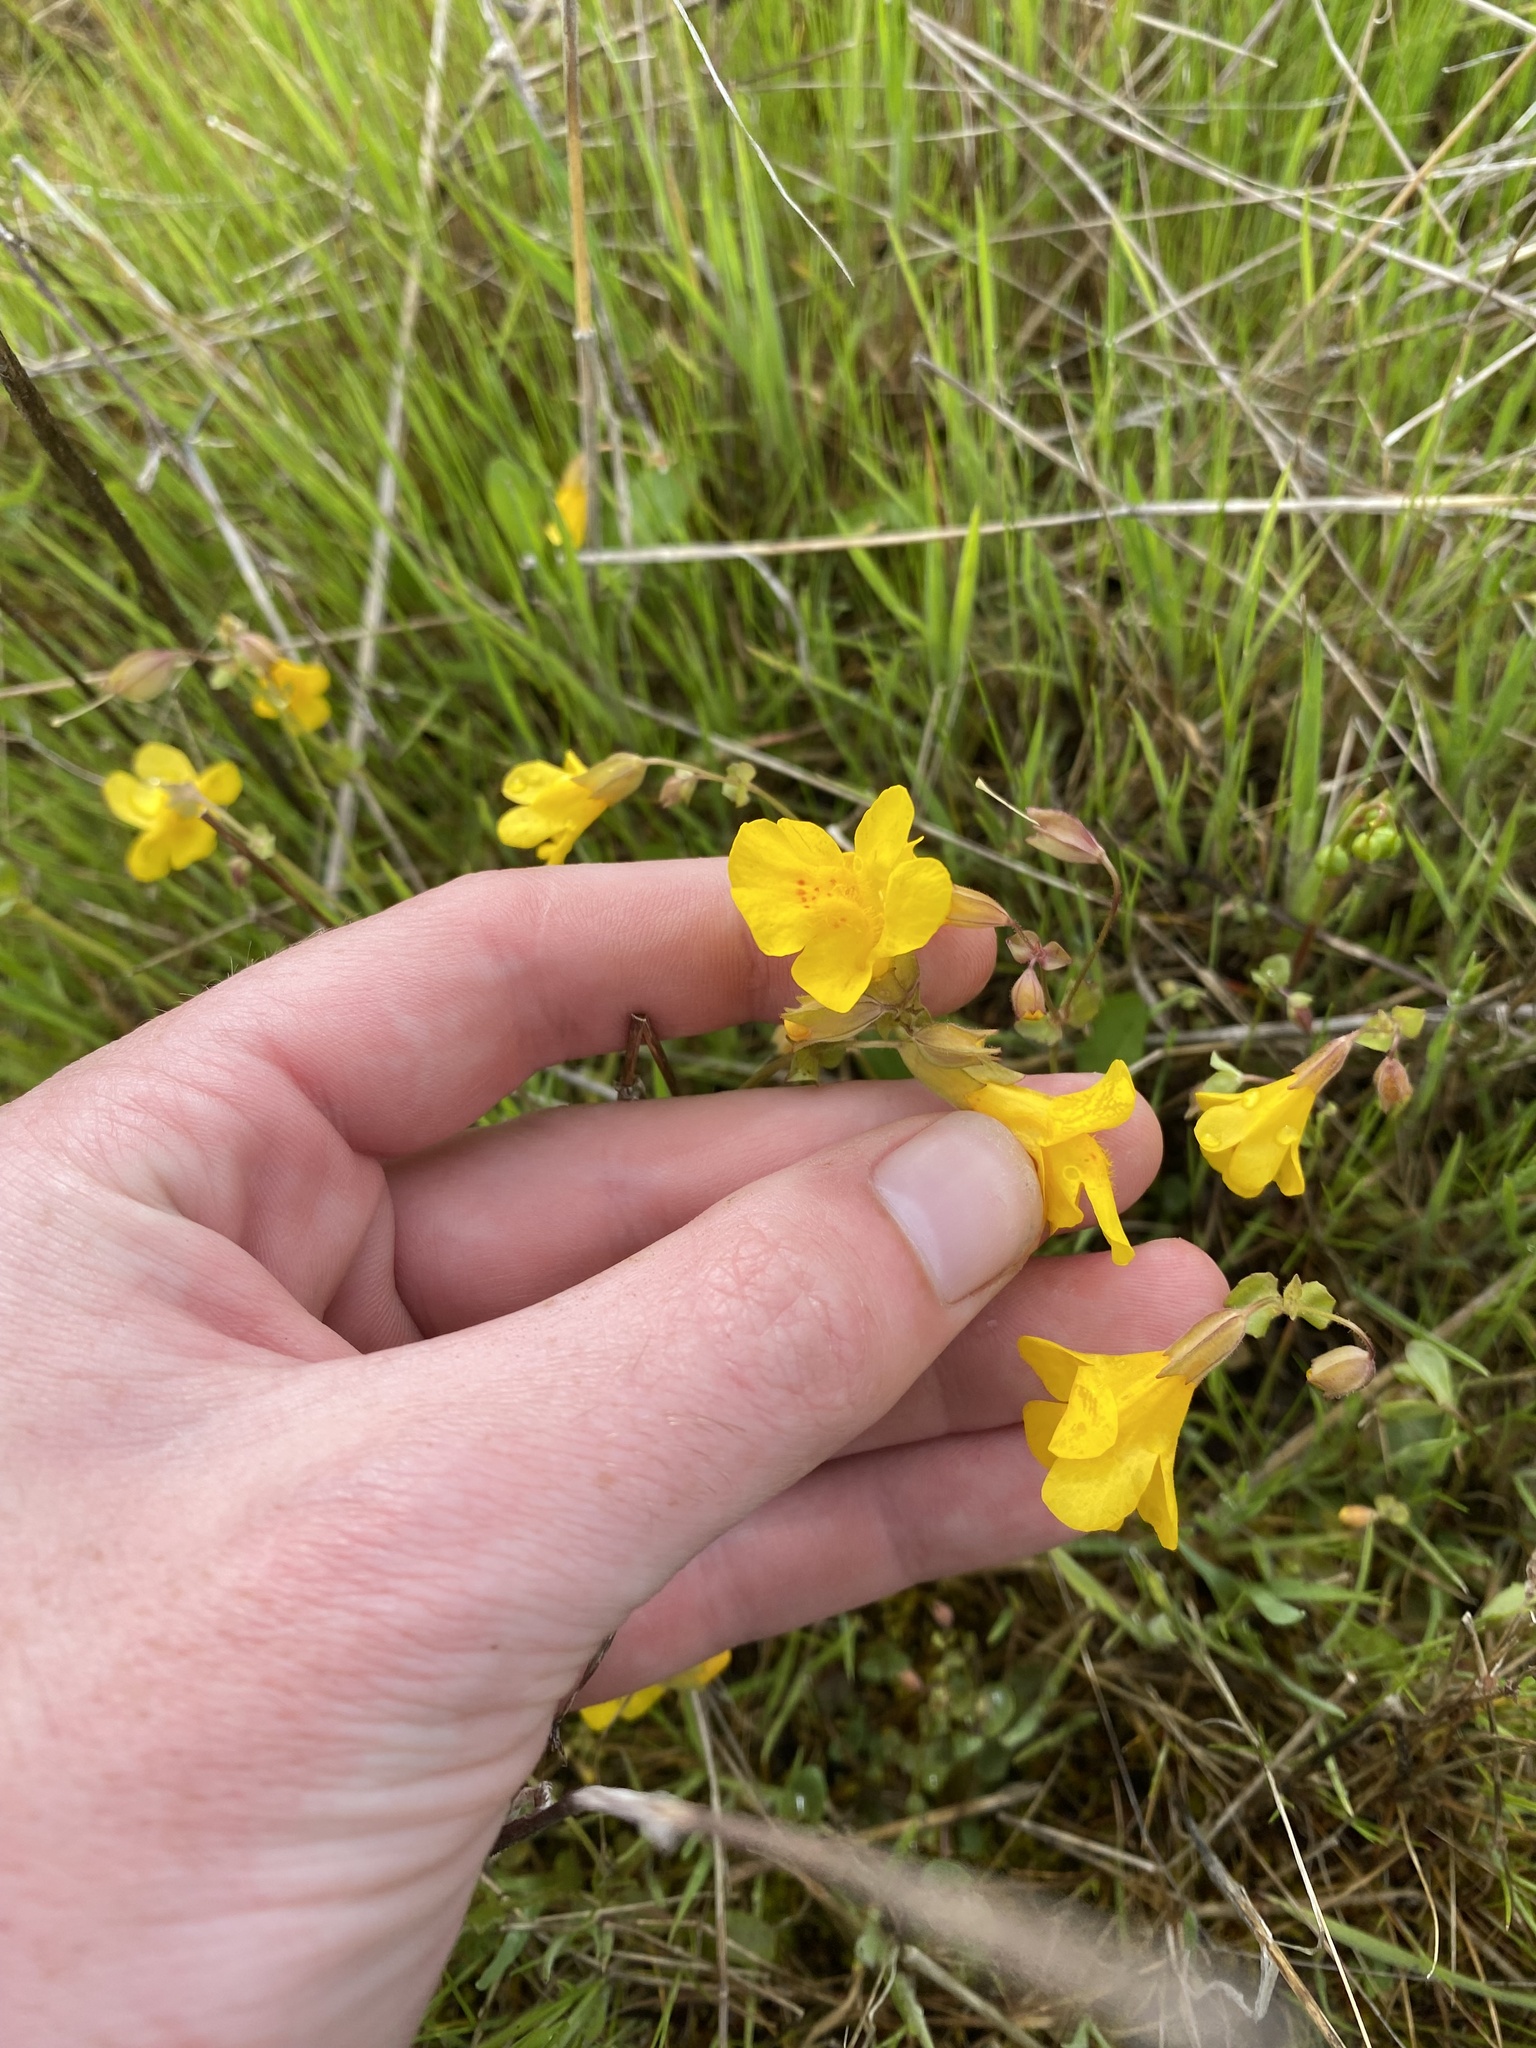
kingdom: Plantae
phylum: Tracheophyta
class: Magnoliopsida
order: Lamiales
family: Phrymaceae
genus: Erythranthe
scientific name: Erythranthe microphylla
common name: Bentham's monkeyflower
